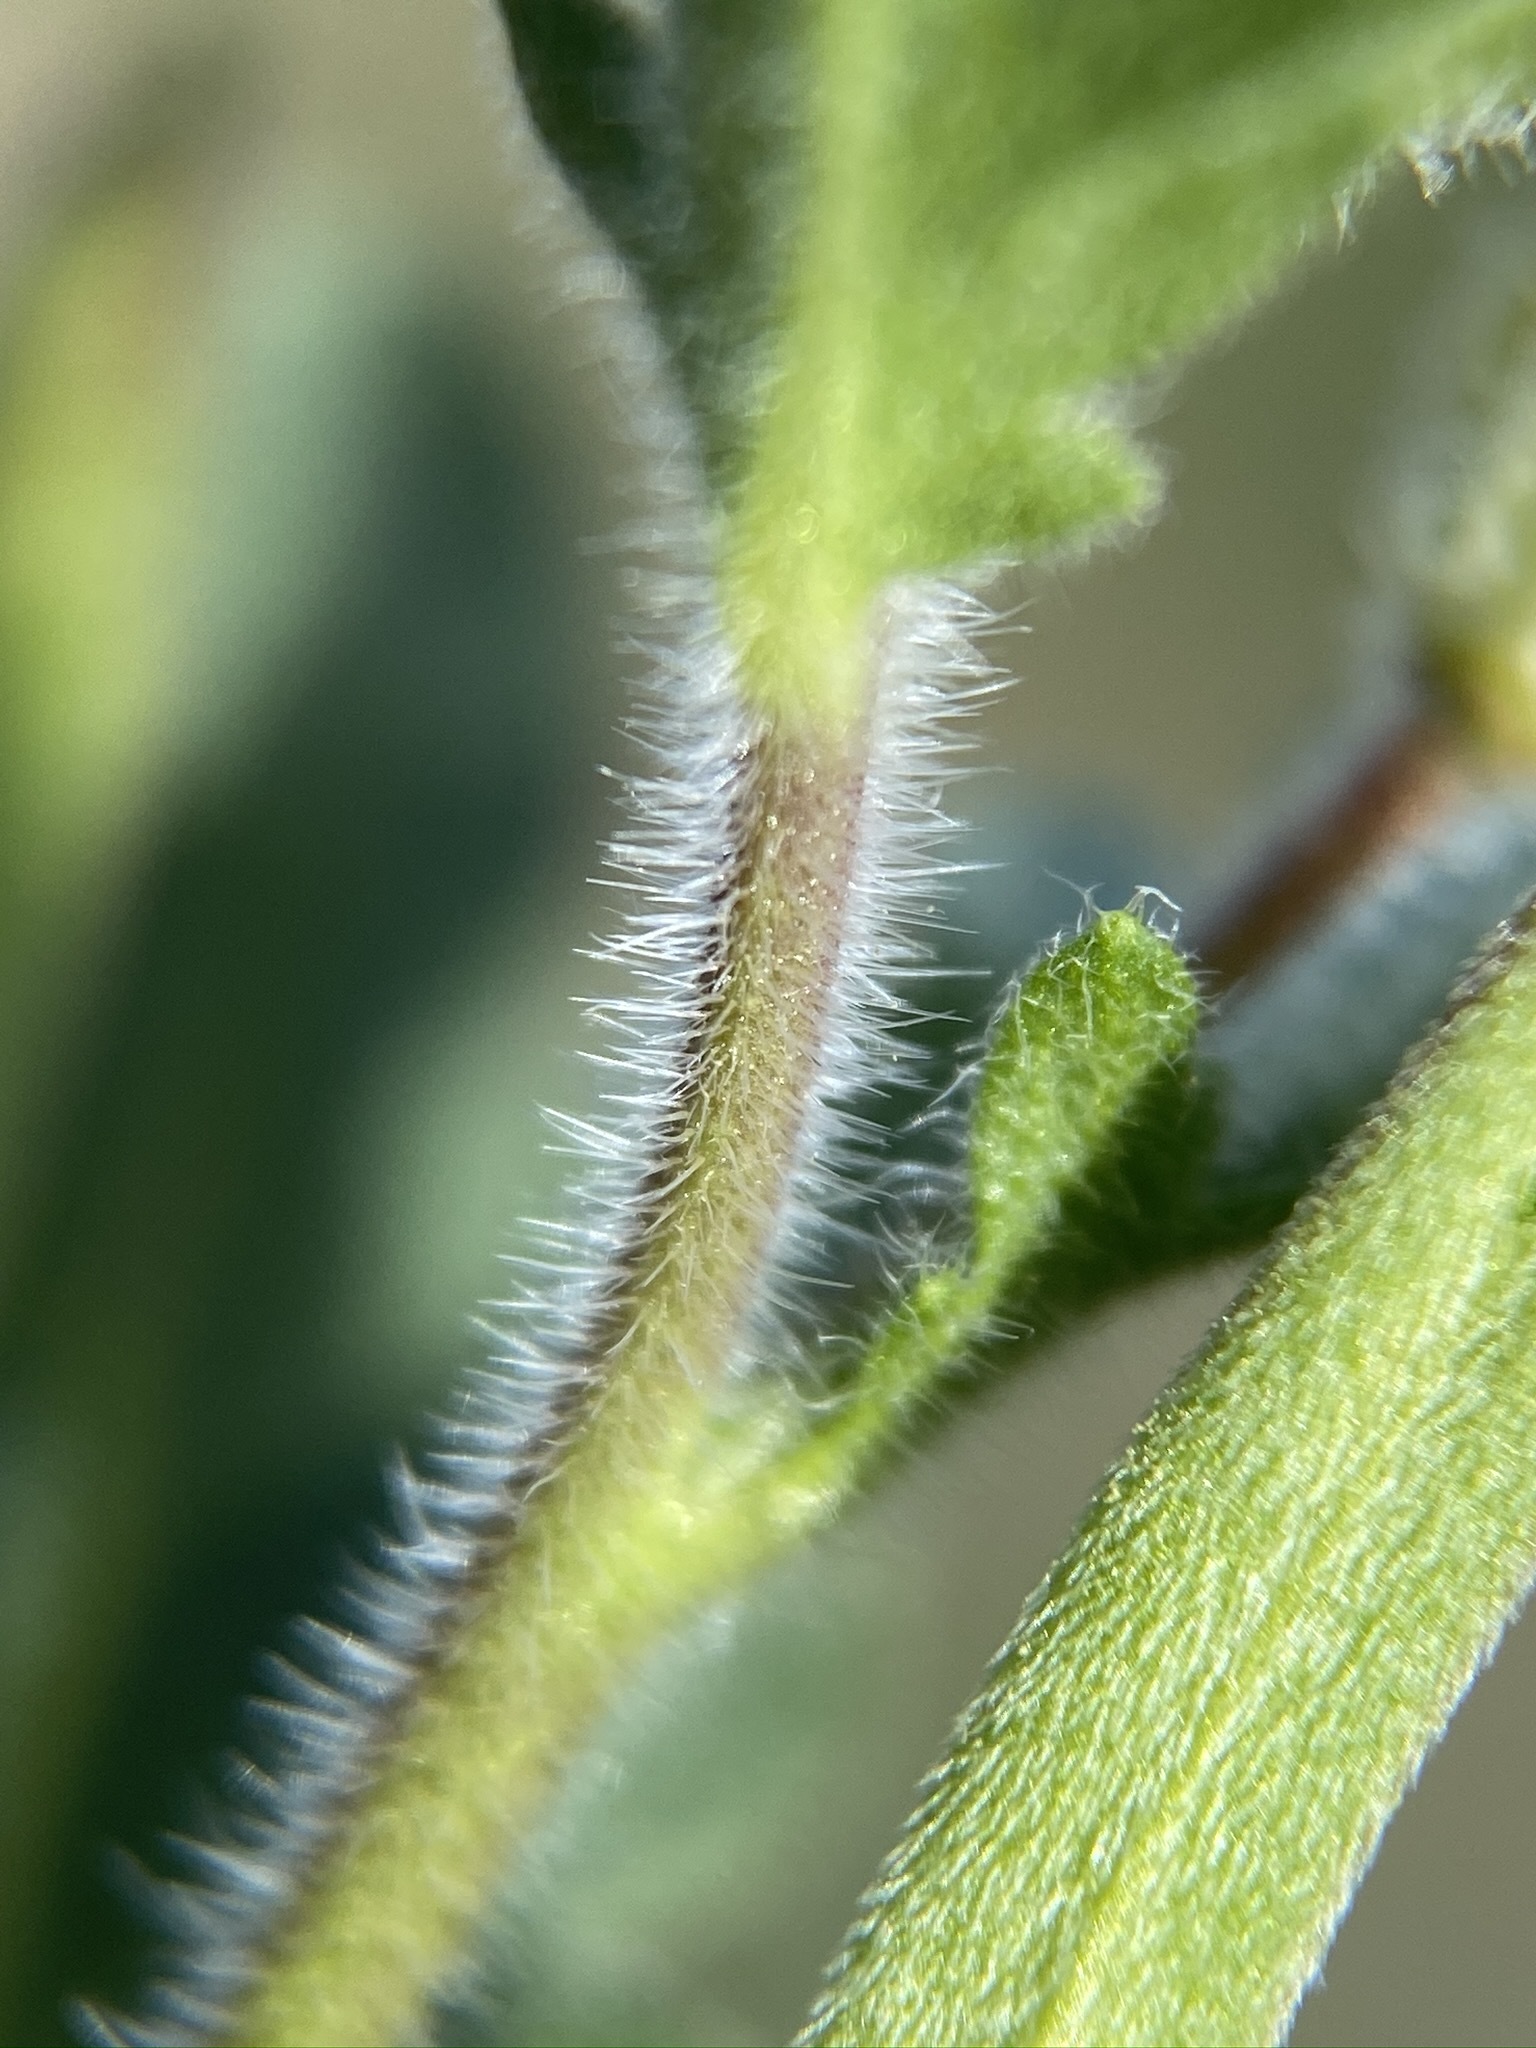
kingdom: Plantae
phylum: Tracheophyta
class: Magnoliopsida
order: Brassicales
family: Brassicaceae
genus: Tropidocarpum
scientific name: Tropidocarpum gracile
